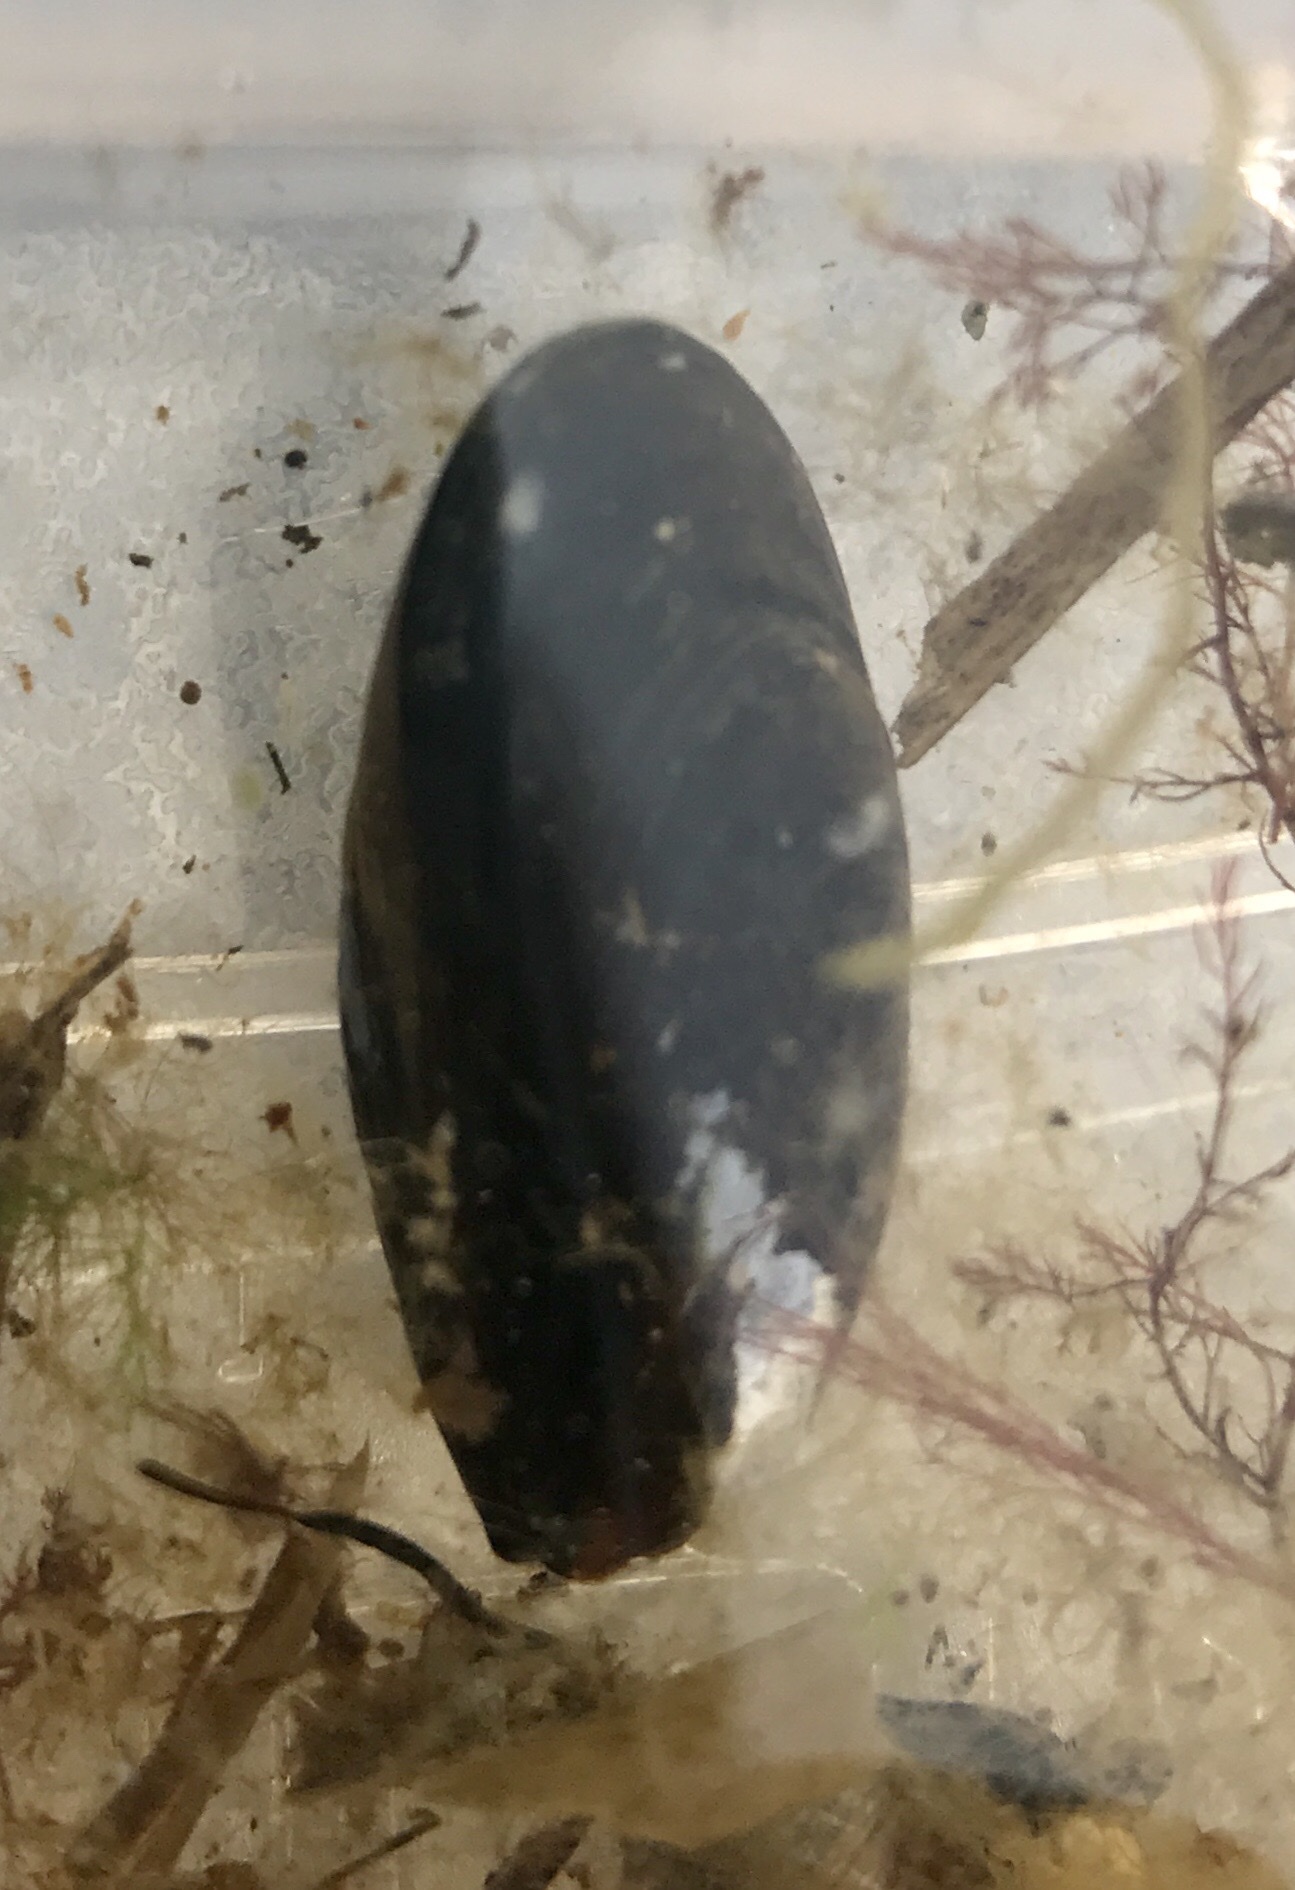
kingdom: Animalia
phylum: Mollusca
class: Bivalvia
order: Mytilida
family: Mytilidae
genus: Mytilus
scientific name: Mytilus edulis
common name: Blue mussel
